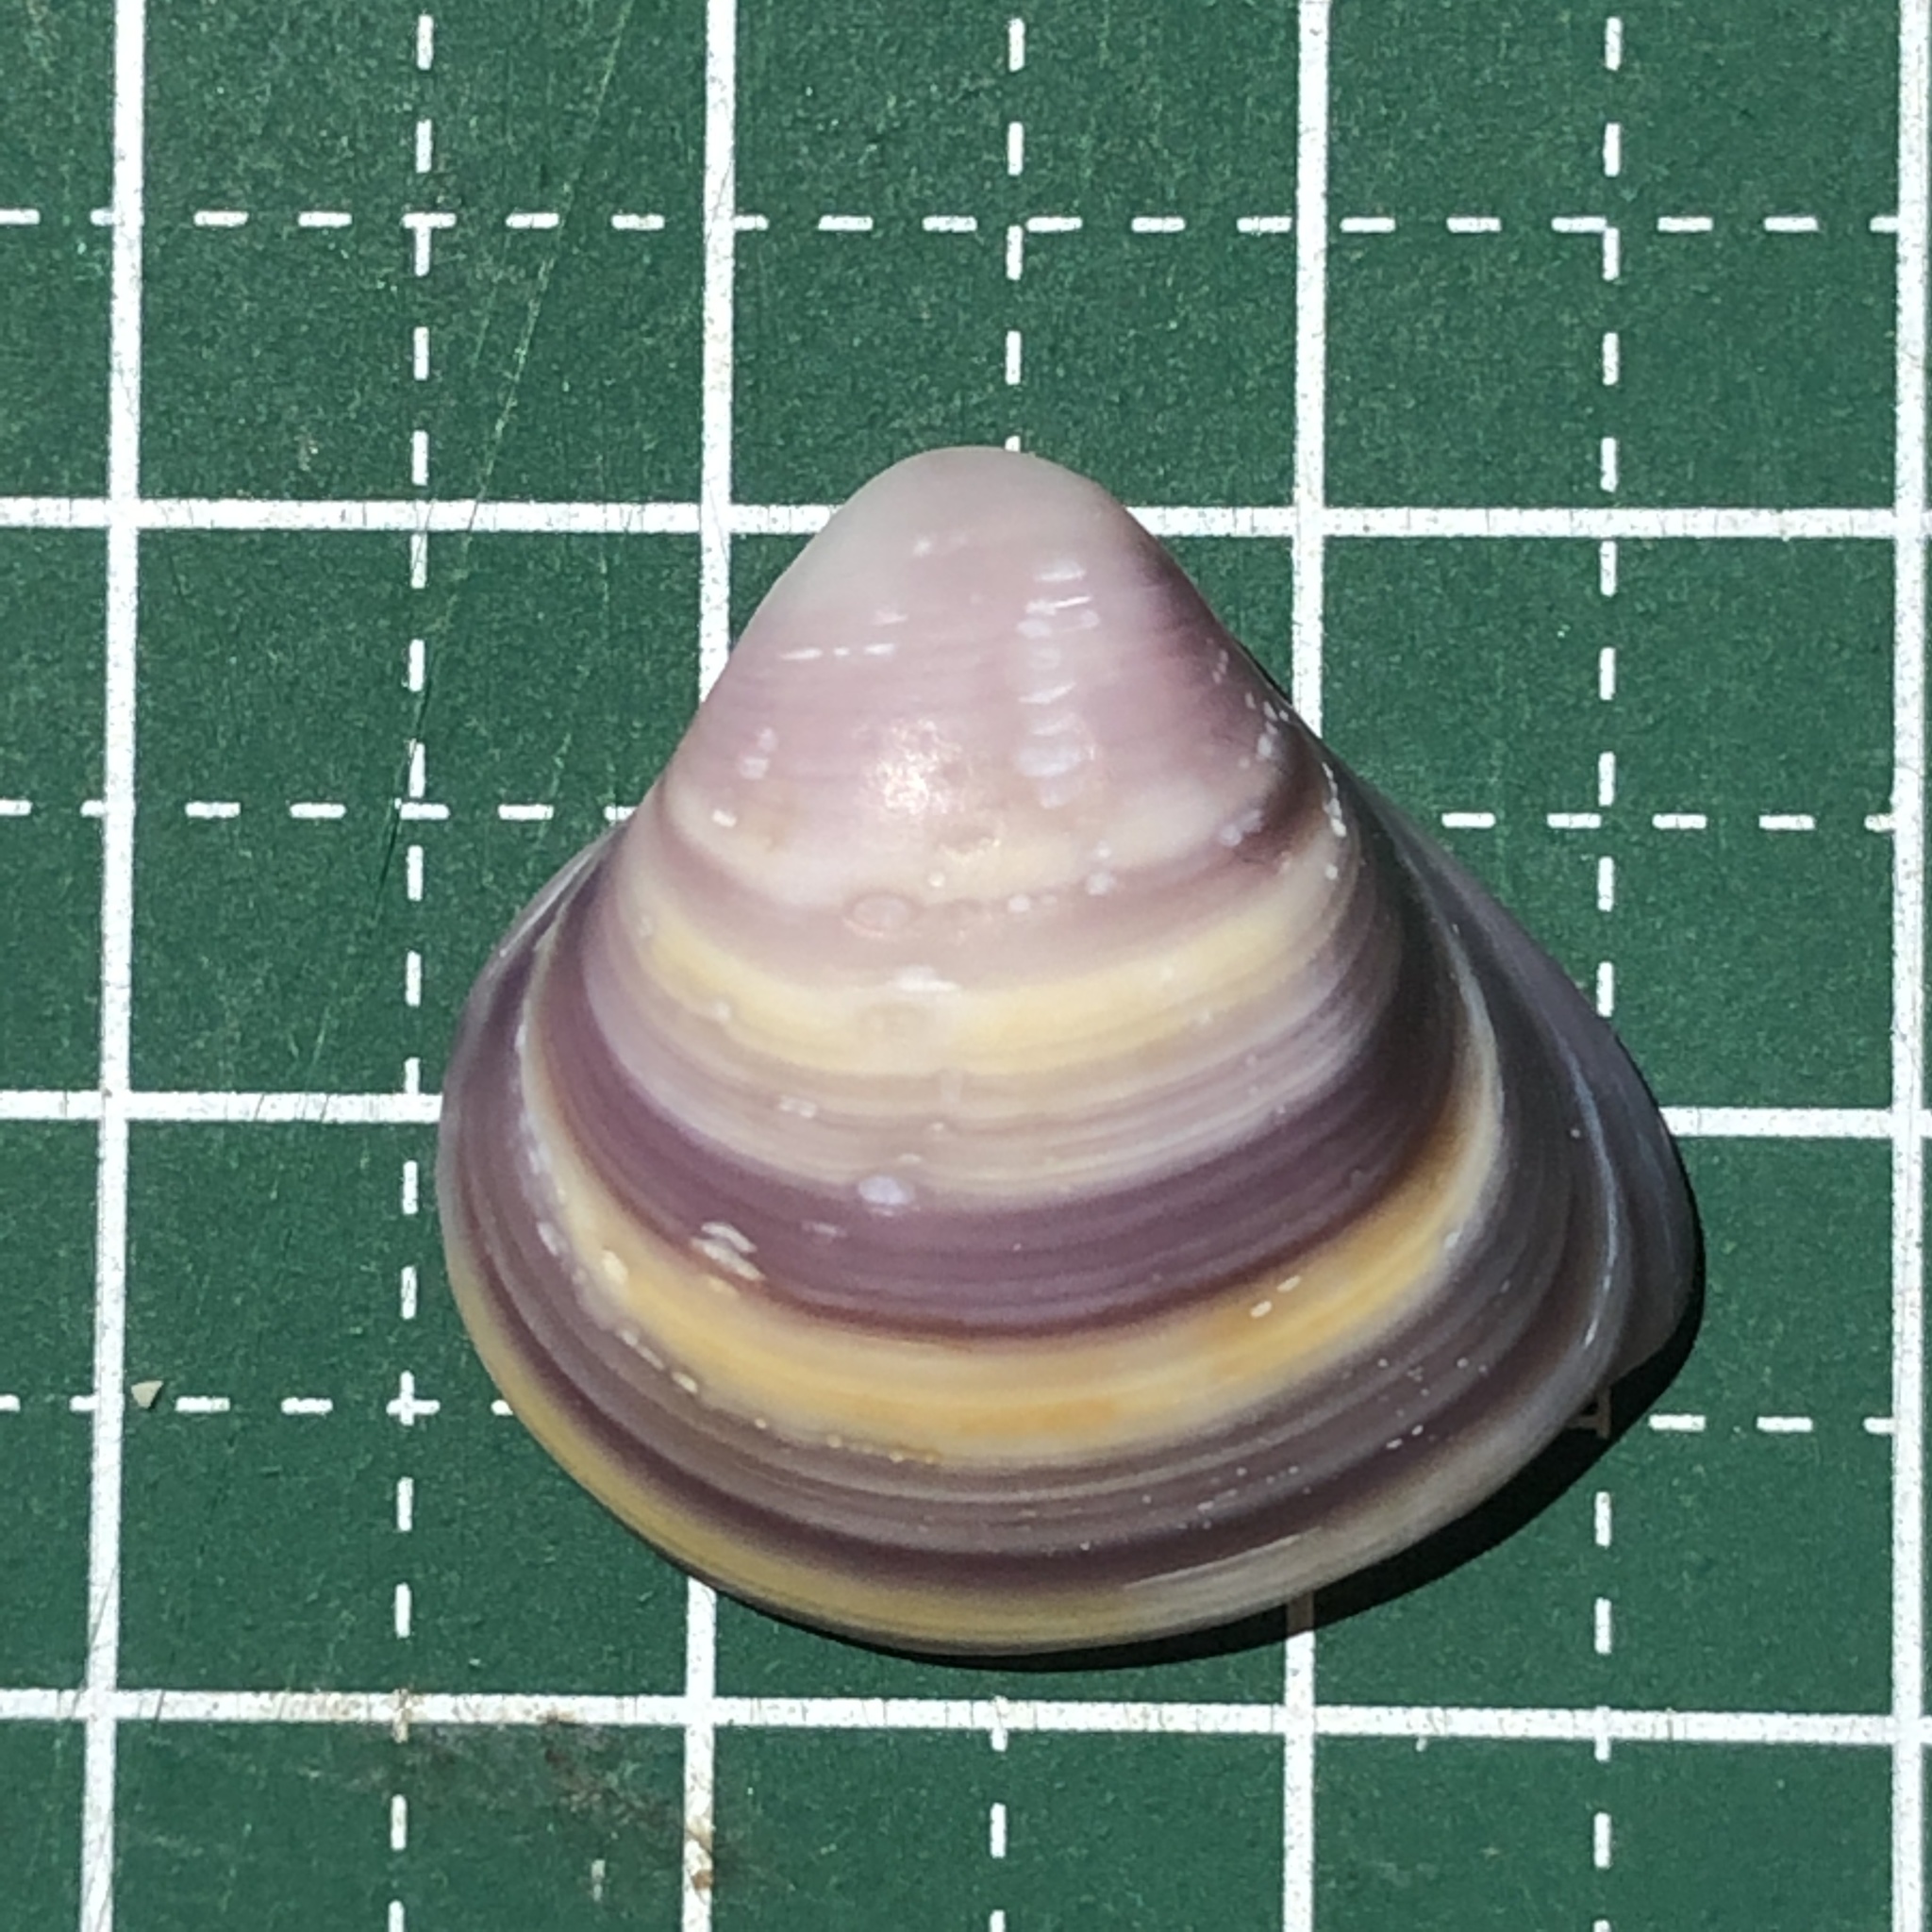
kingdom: Animalia
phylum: Mollusca
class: Bivalvia
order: Venerida
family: Mactridae
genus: Mactra
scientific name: Mactra quadrangularis
